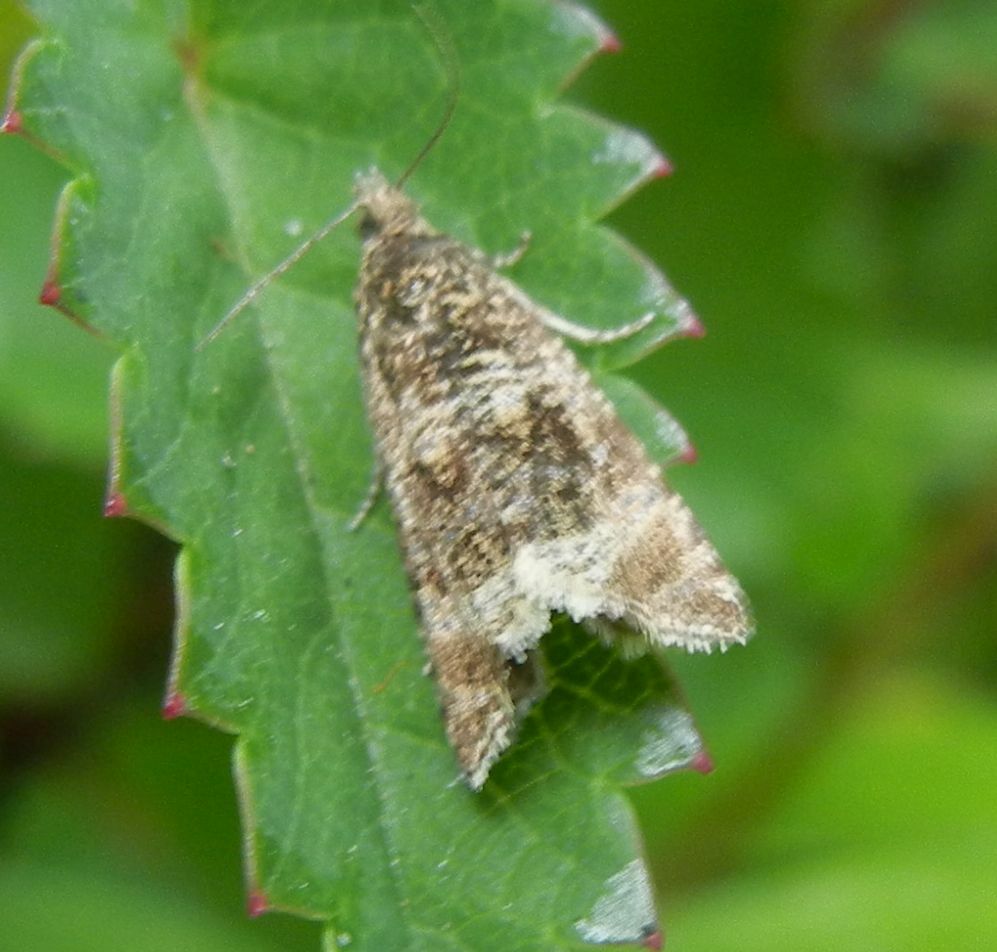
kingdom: Animalia
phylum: Arthropoda
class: Insecta
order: Lepidoptera
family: Tortricidae
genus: Syricoris
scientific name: Syricoris lacunana
